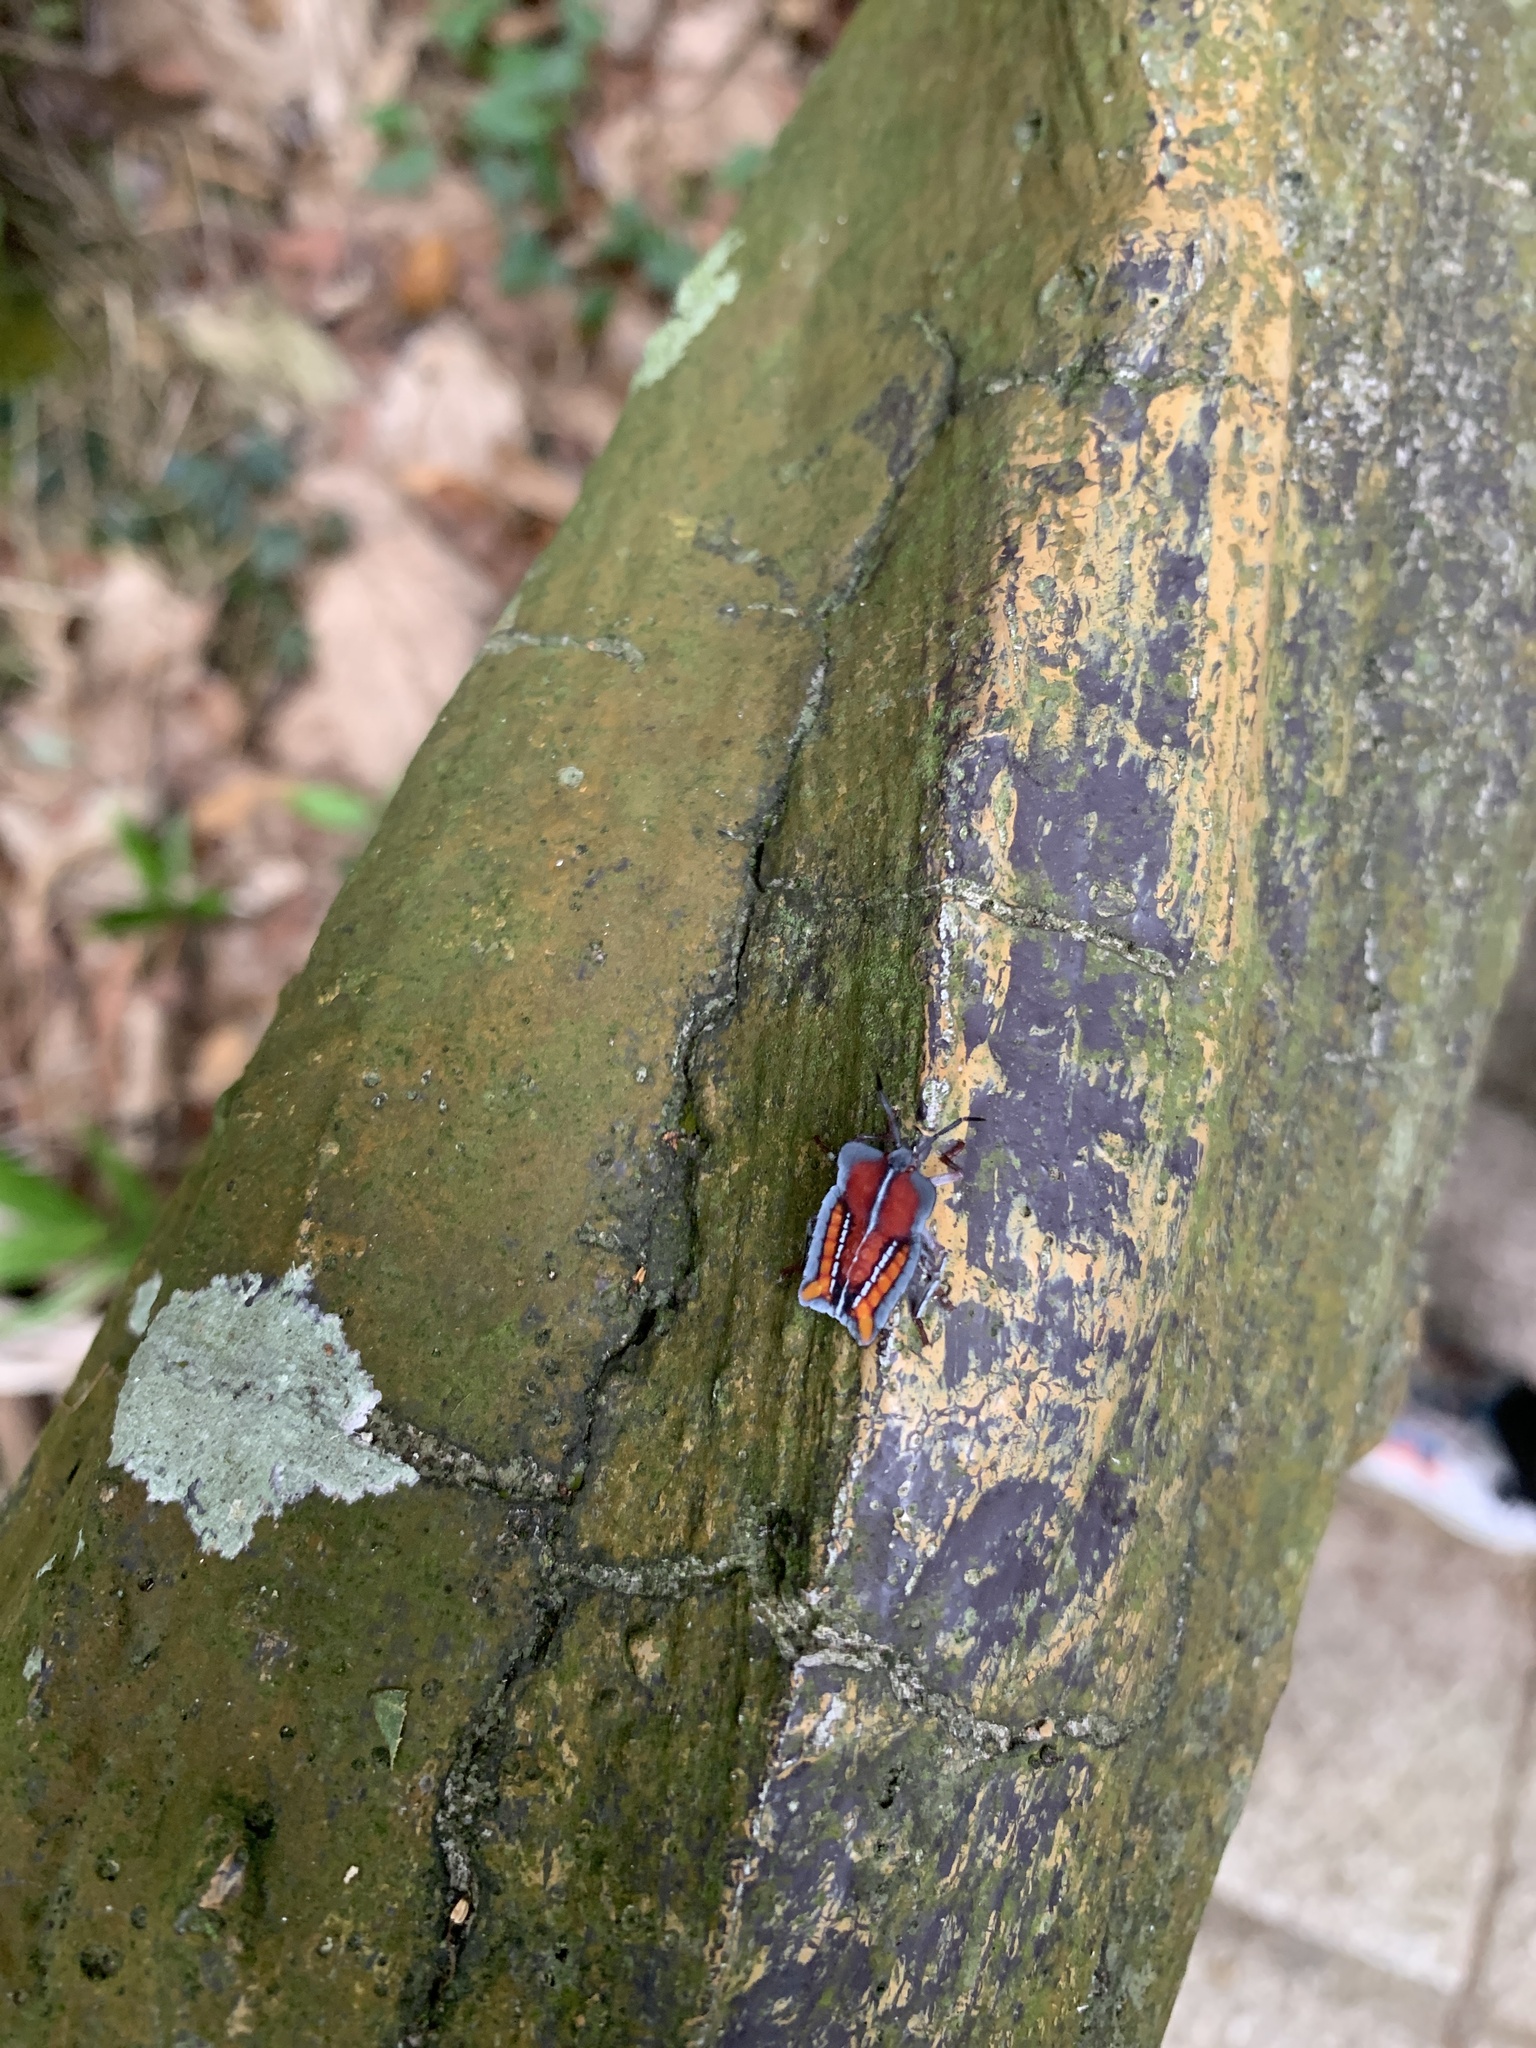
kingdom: Animalia
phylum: Arthropoda
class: Insecta
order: Hemiptera
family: Tessaratomidae
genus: Tessaratoma
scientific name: Tessaratoma papillosa
